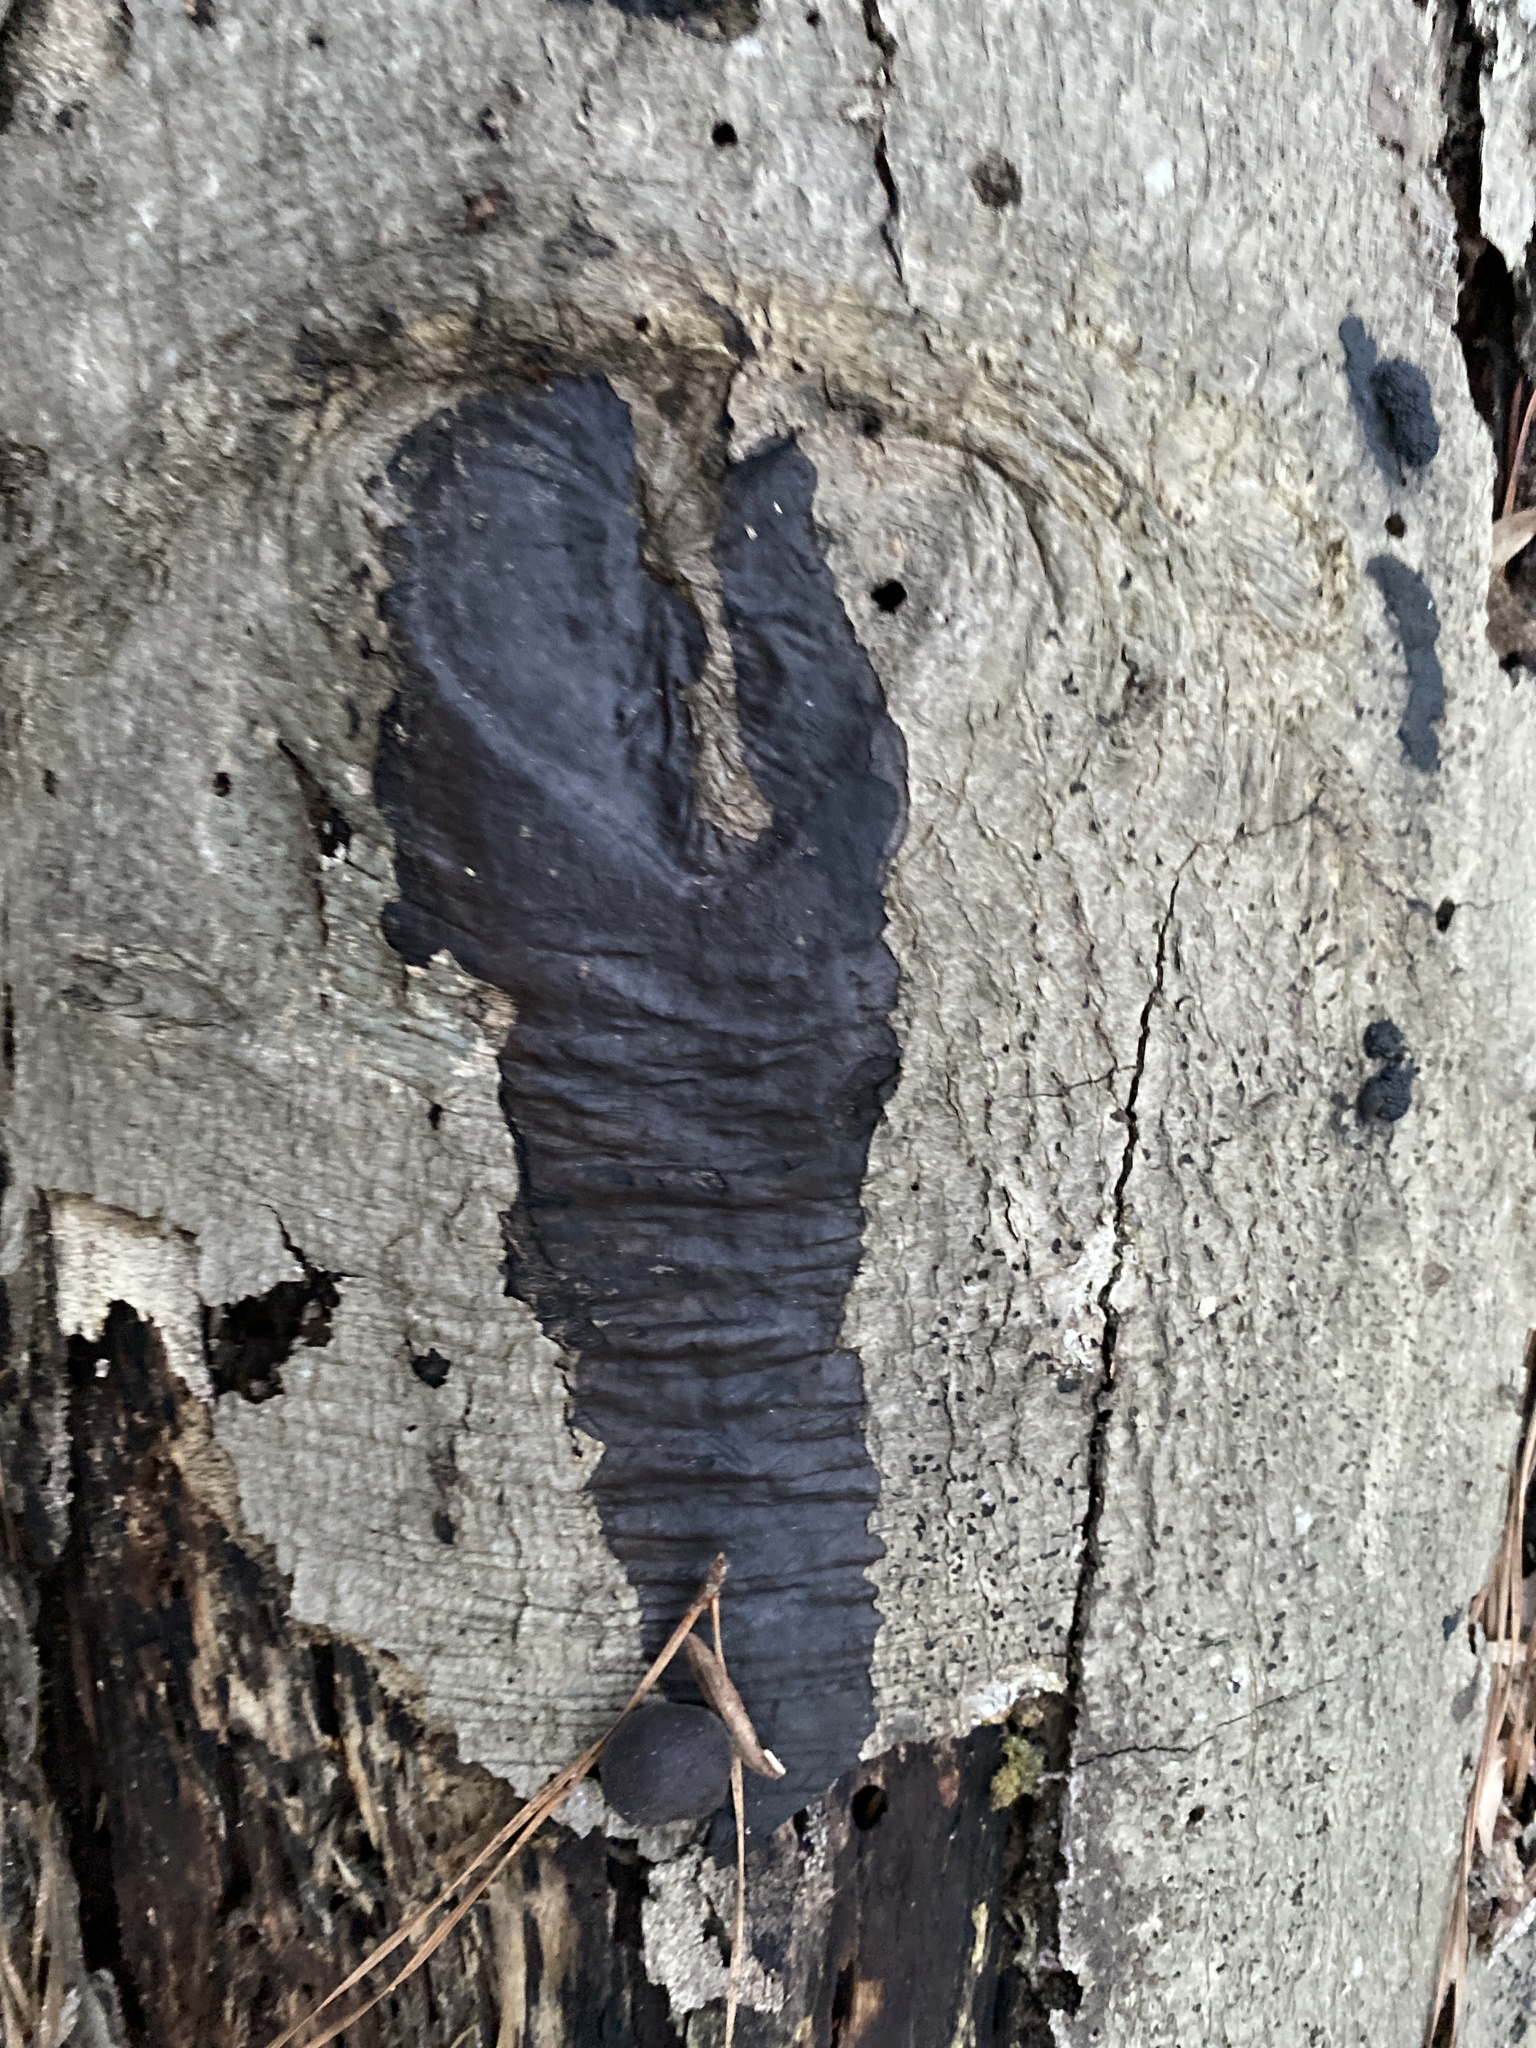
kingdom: Fungi
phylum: Ascomycota
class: Sordariomycetes
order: Xylariales
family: Diatrypaceae
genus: Diatrype
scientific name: Diatrype stigma
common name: Common tarcrust
